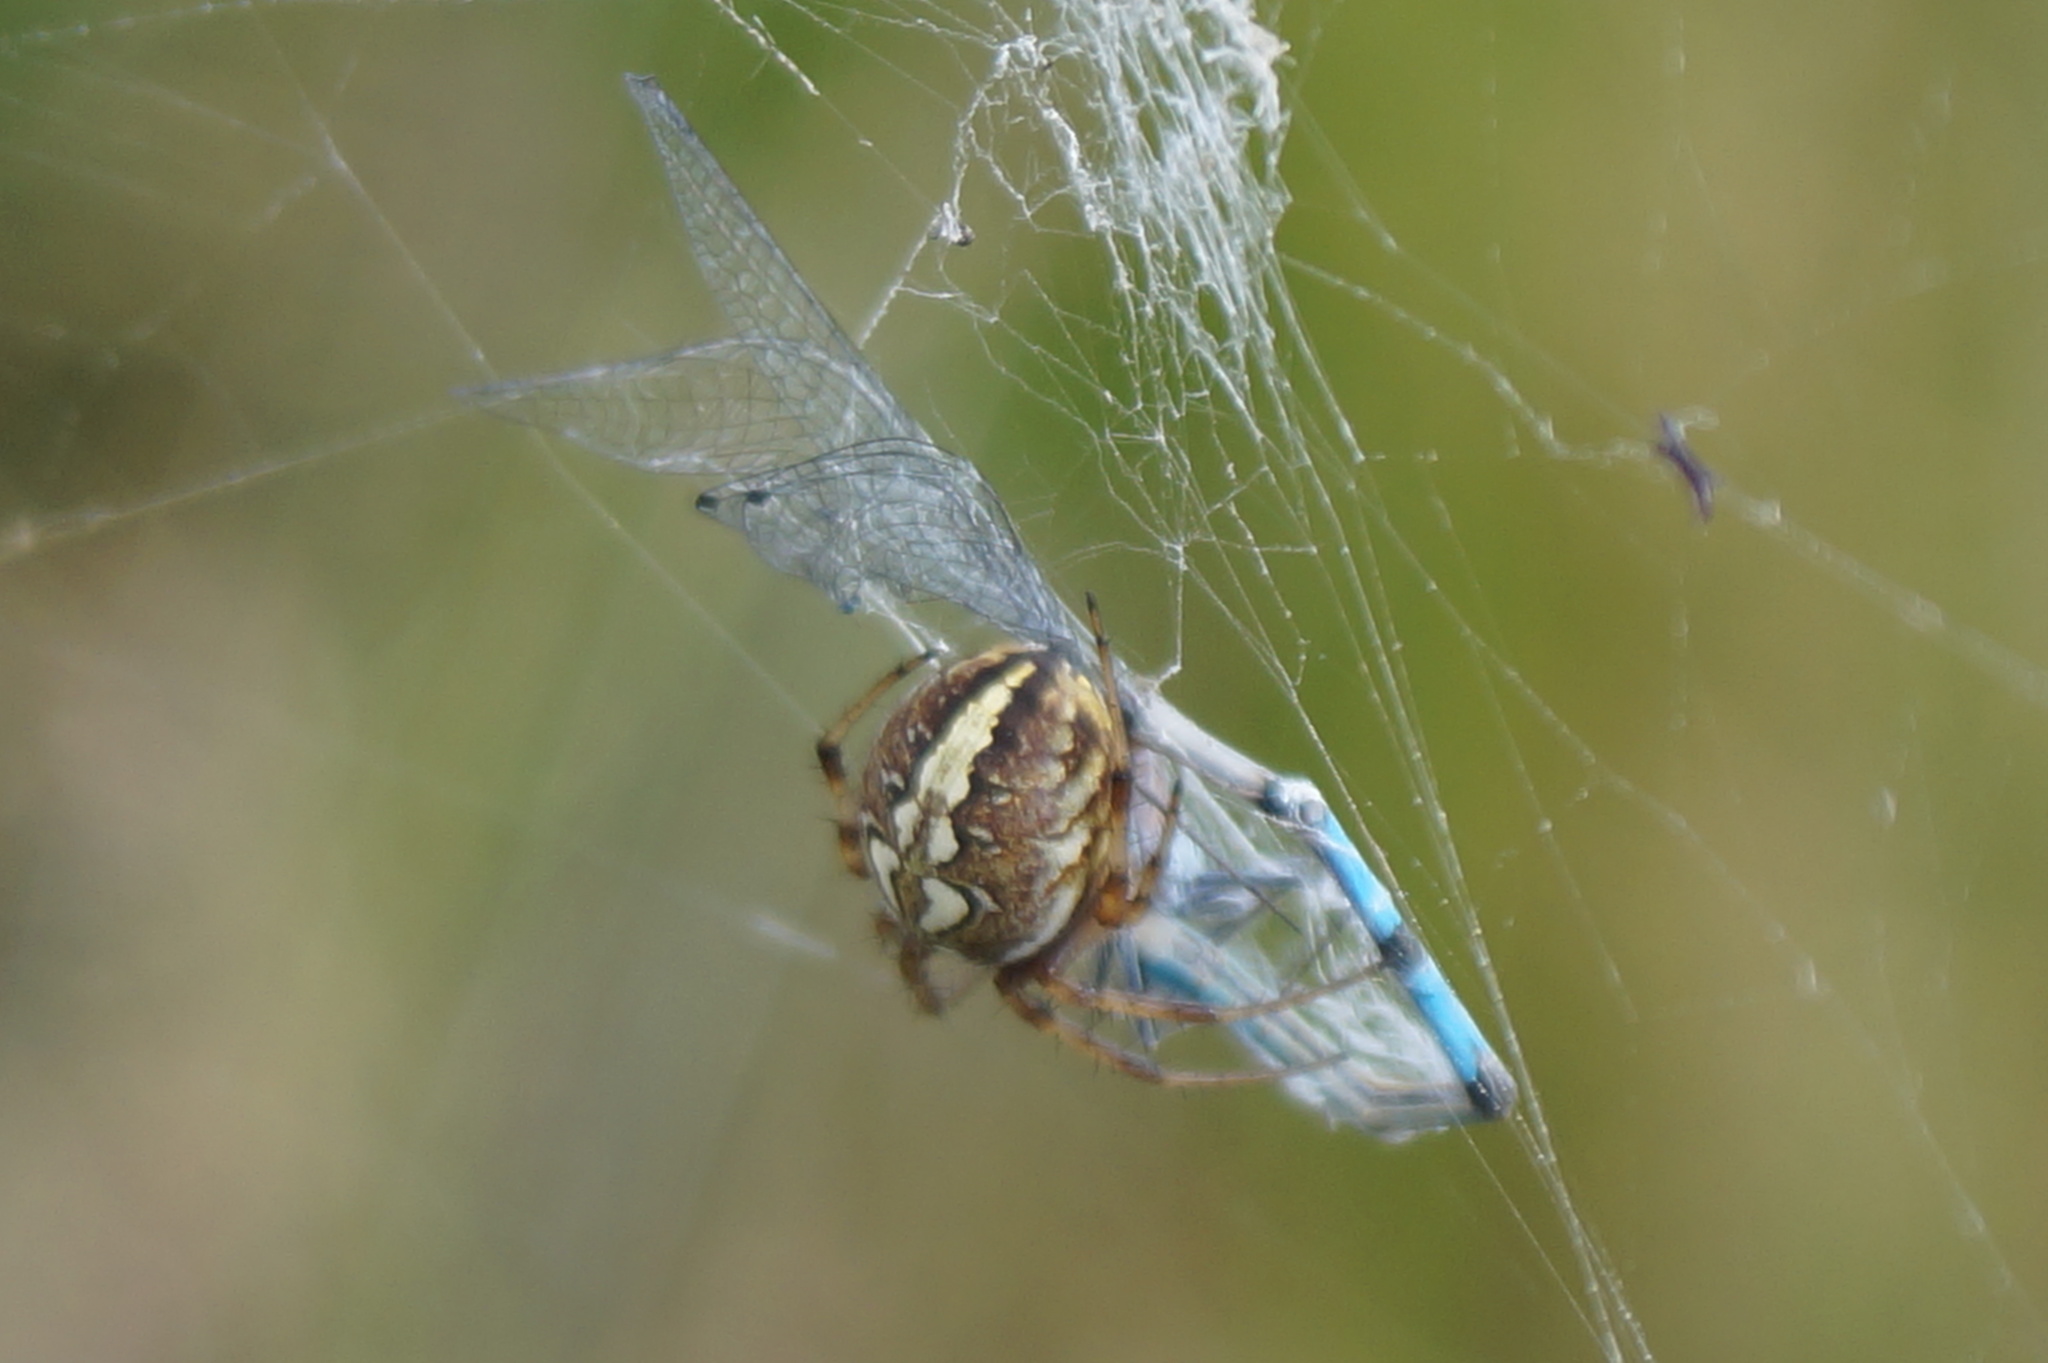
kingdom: Animalia
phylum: Arthropoda
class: Arachnida
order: Araneae
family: Araneidae
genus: Neoscona
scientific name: Neoscona adianta
